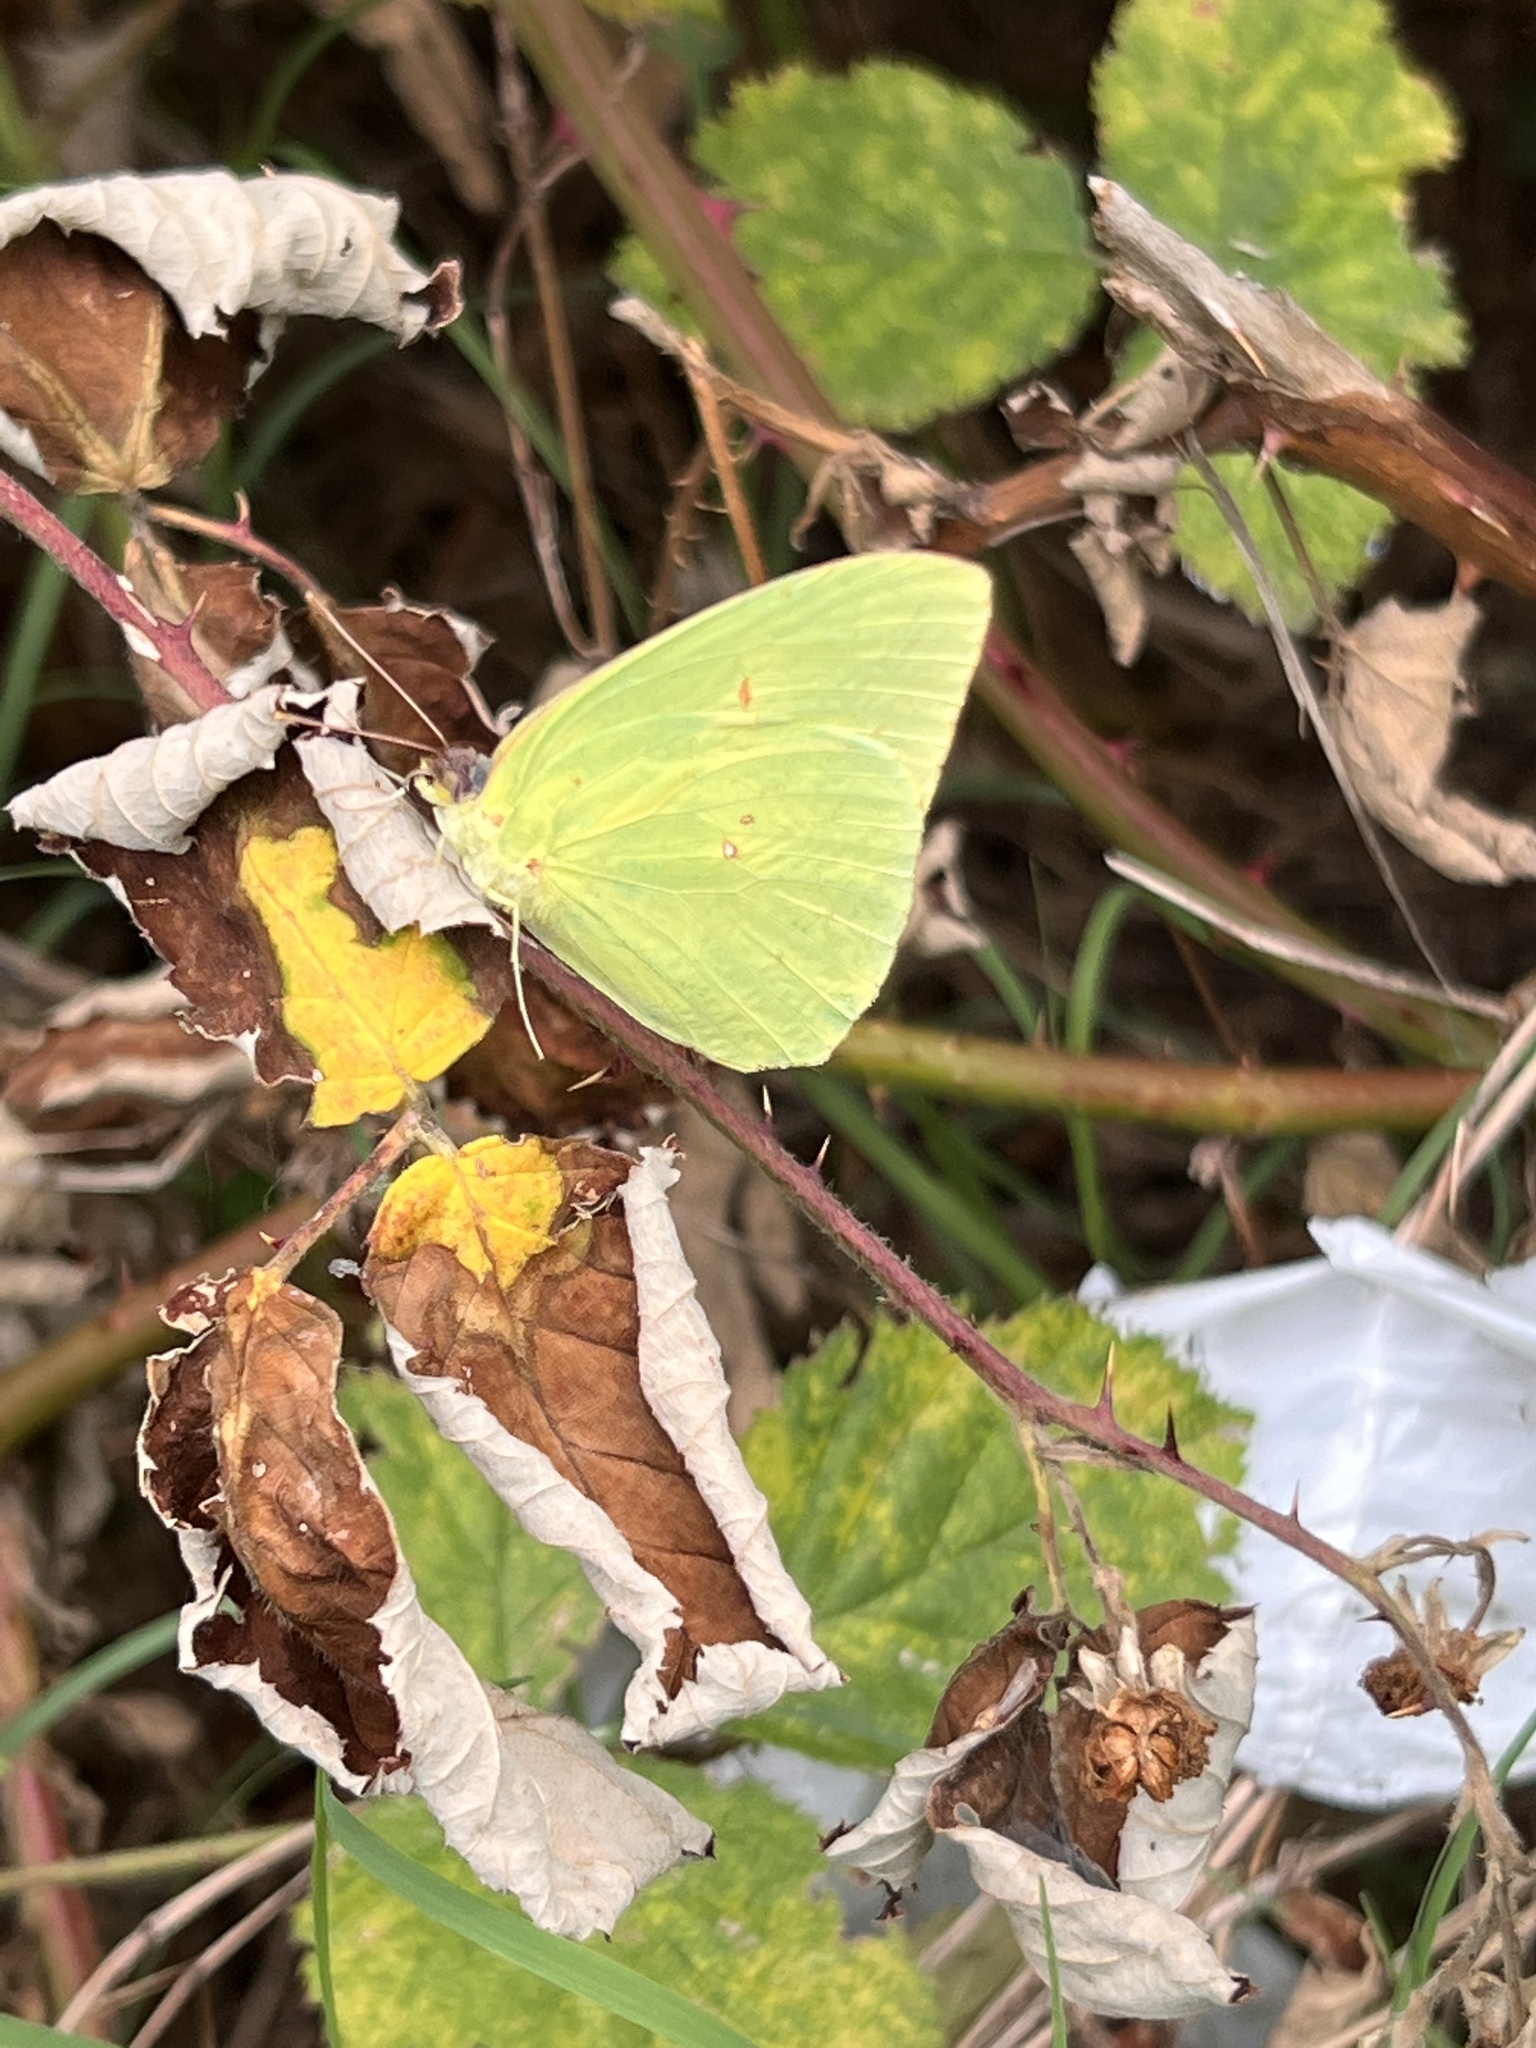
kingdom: Animalia
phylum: Arthropoda
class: Insecta
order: Lepidoptera
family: Pieridae
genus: Phoebis
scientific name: Phoebis sennae
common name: Cloudless sulphur
